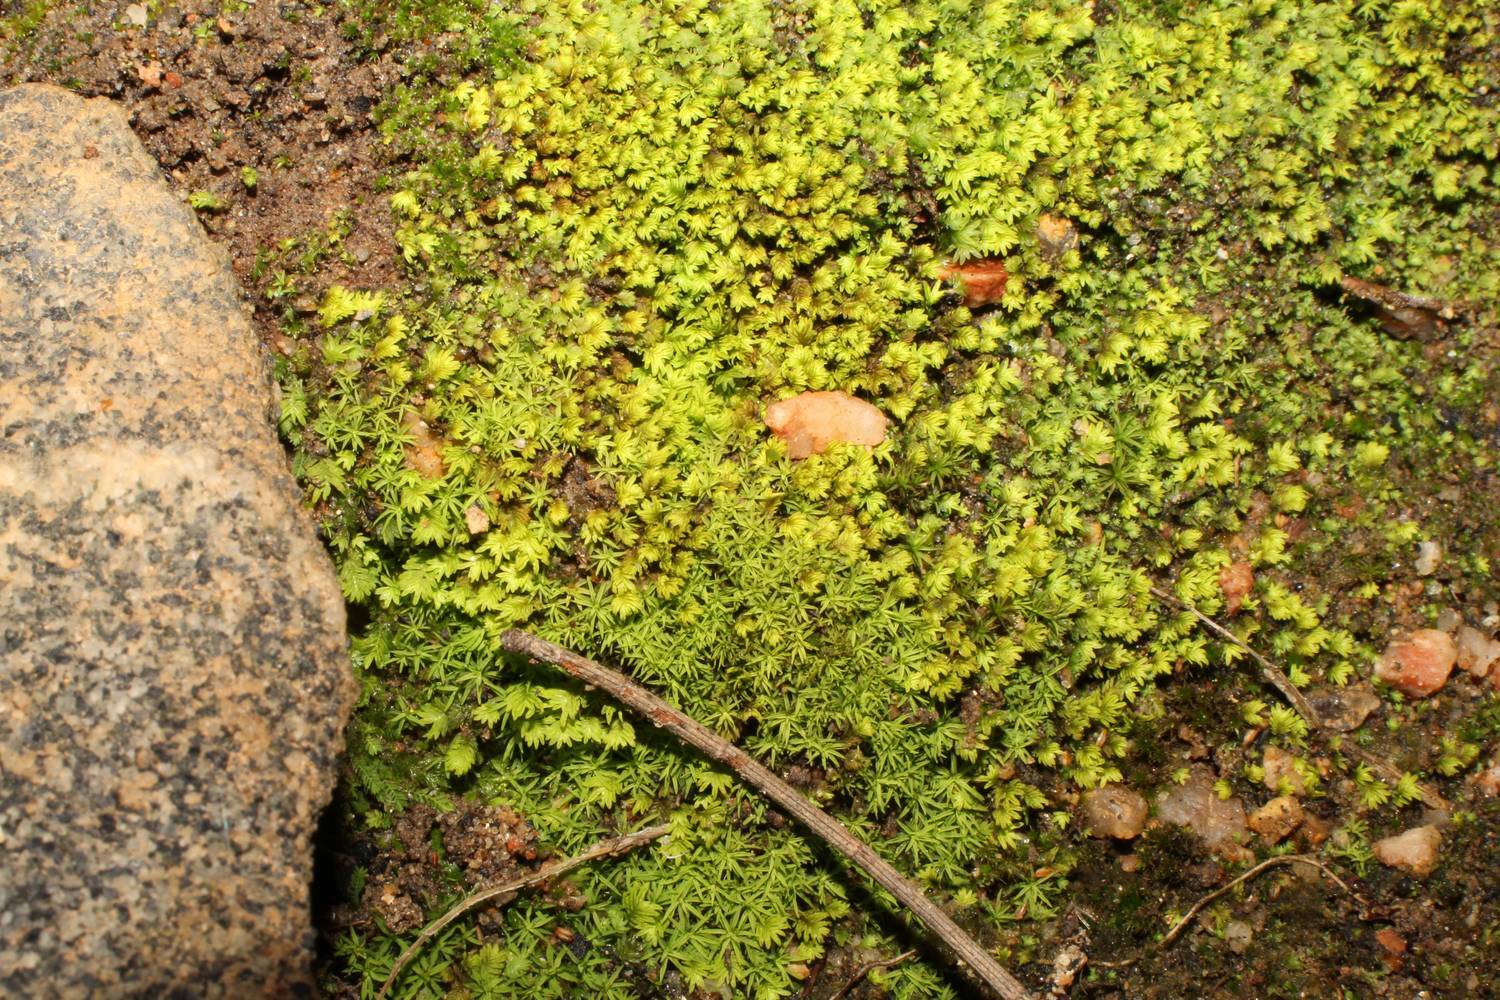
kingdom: Plantae
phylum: Bryophyta
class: Bryopsida
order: Dicranales
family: Fissidentaceae
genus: Fissidens
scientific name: Fissidens megalotis
